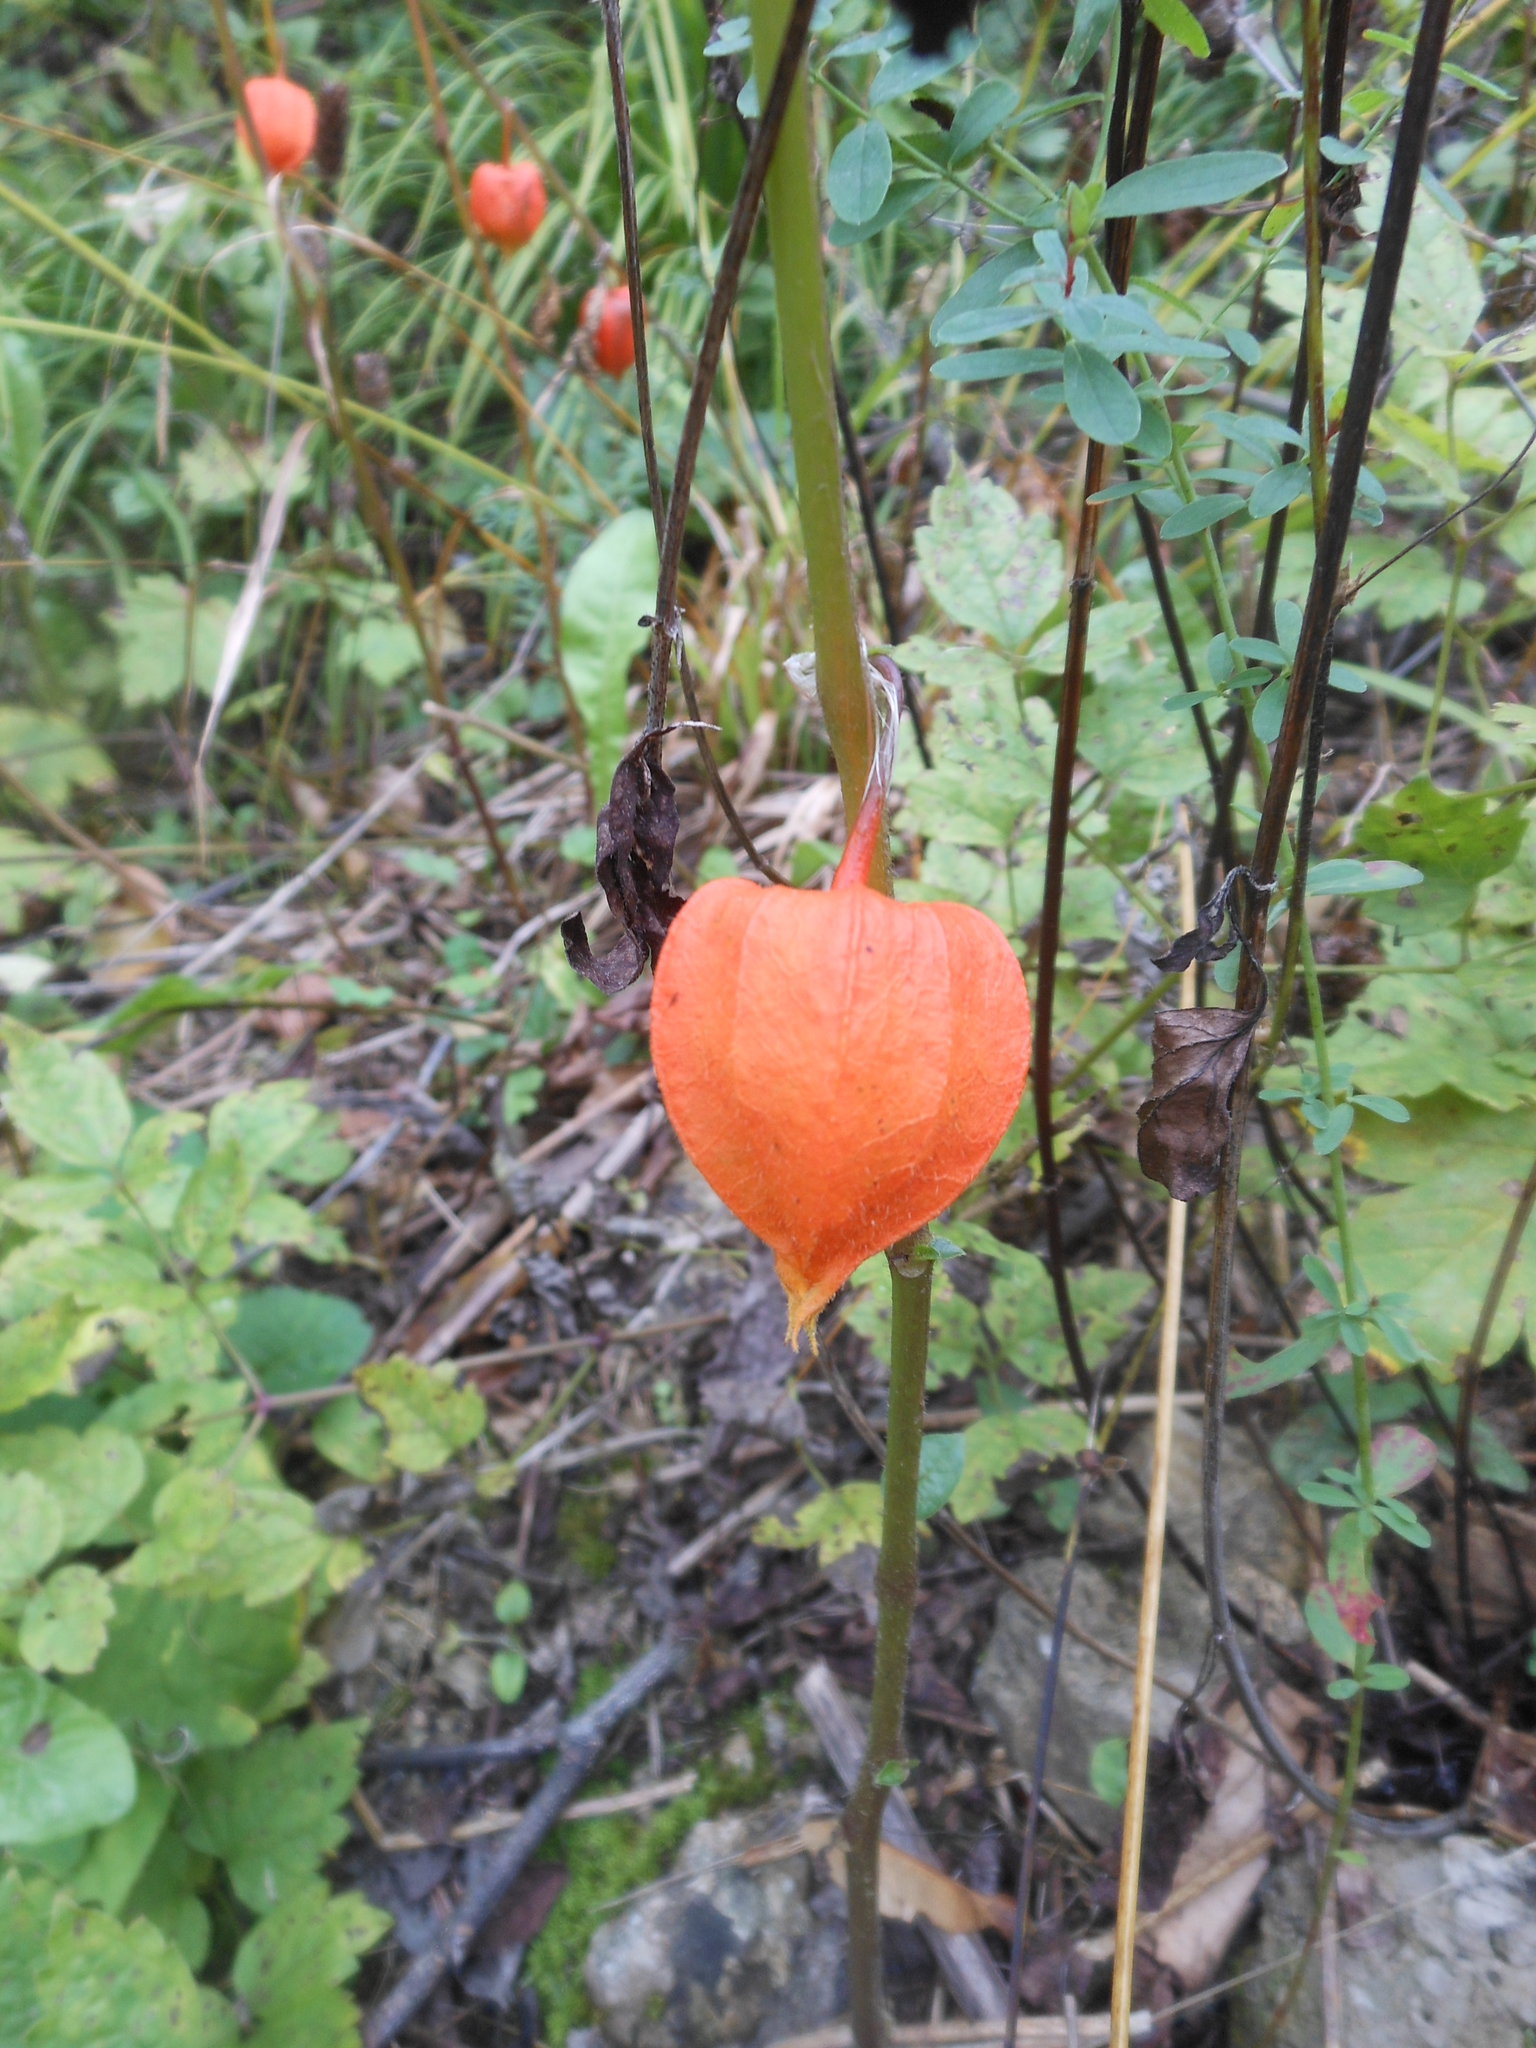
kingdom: Plantae
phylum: Tracheophyta
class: Magnoliopsida
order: Solanales
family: Solanaceae
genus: Alkekengi
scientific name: Alkekengi officinarum
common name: Japanese-lantern
